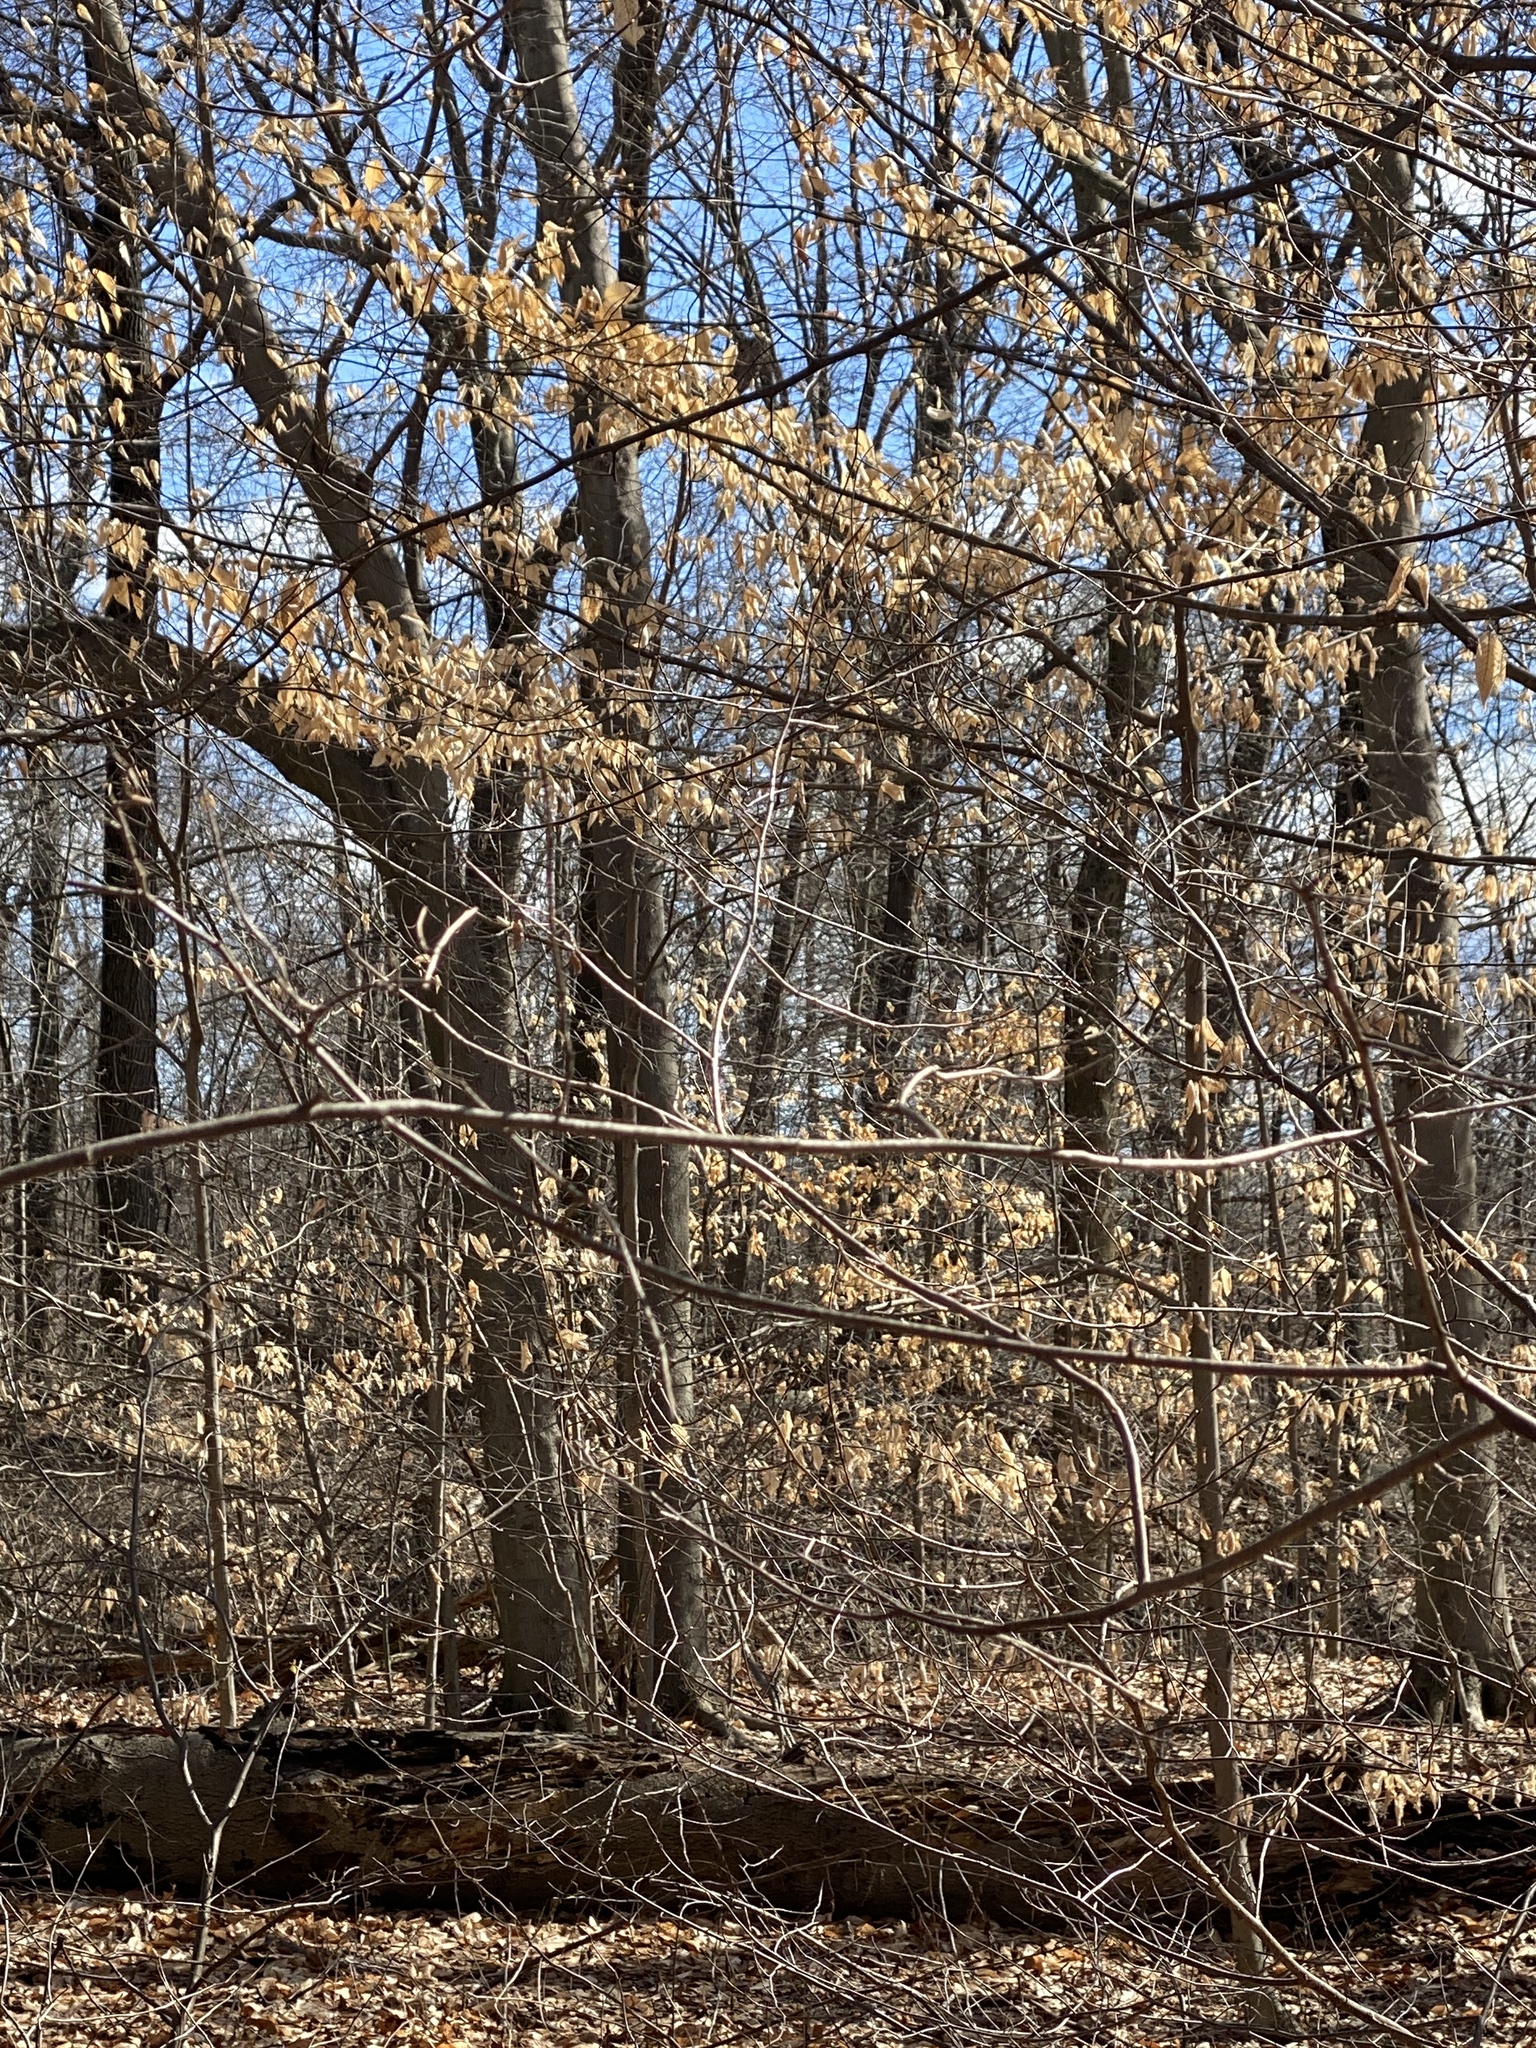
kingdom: Plantae
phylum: Tracheophyta
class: Magnoliopsida
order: Fagales
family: Fagaceae
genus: Fagus
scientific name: Fagus grandifolia
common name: American beech
